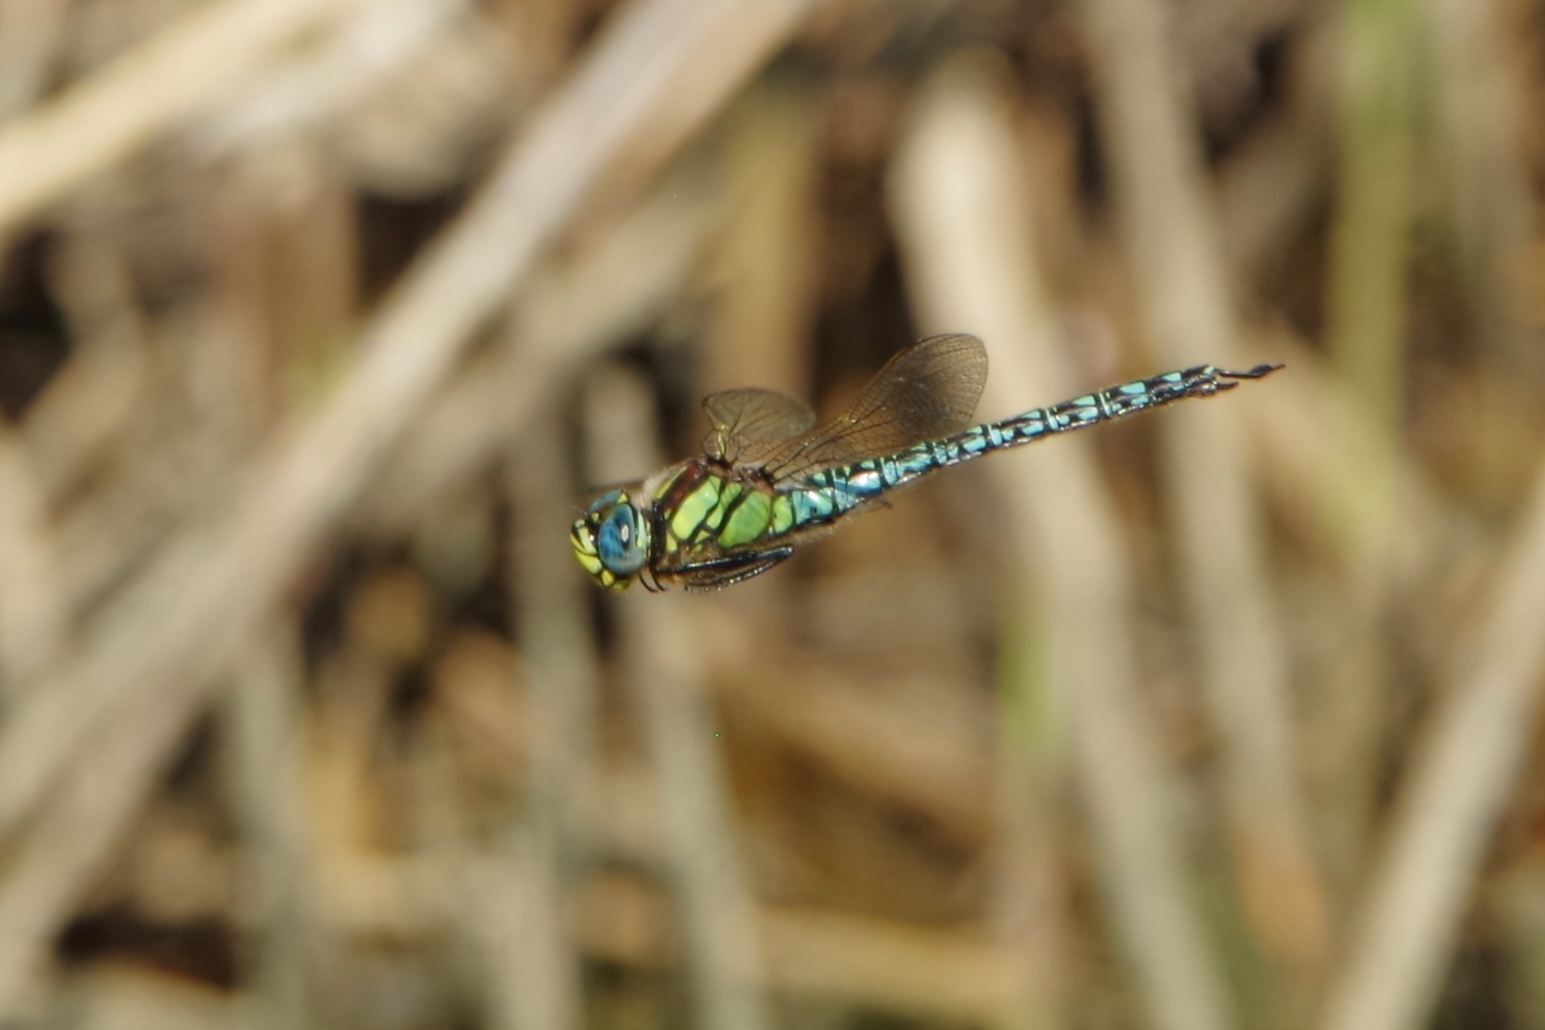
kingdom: Animalia
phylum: Arthropoda
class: Insecta
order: Odonata
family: Aeshnidae
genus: Brachytron
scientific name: Brachytron pratense
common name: Hairy hawker
